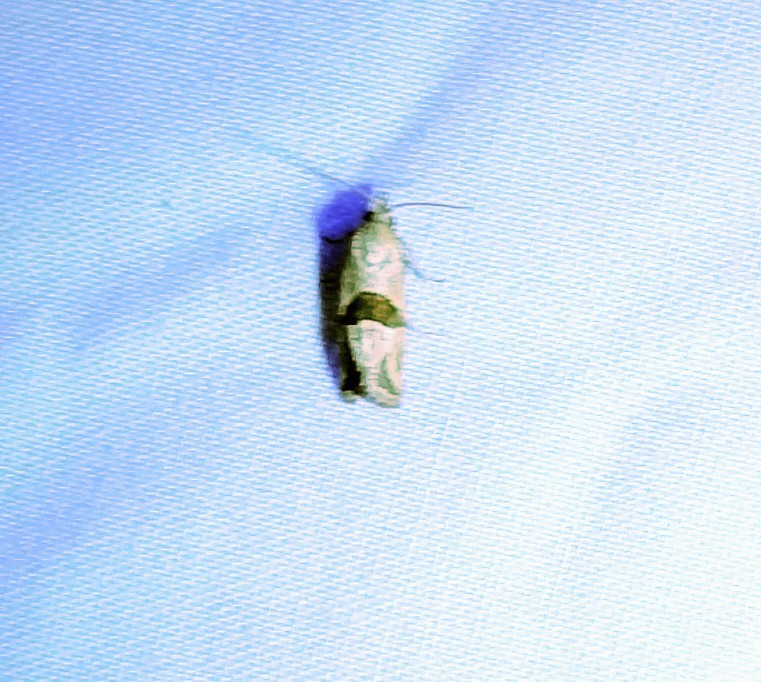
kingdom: Animalia
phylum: Arthropoda
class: Insecta
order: Lepidoptera
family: Tortricidae
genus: Eugnosta
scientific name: Eugnosta sartana
